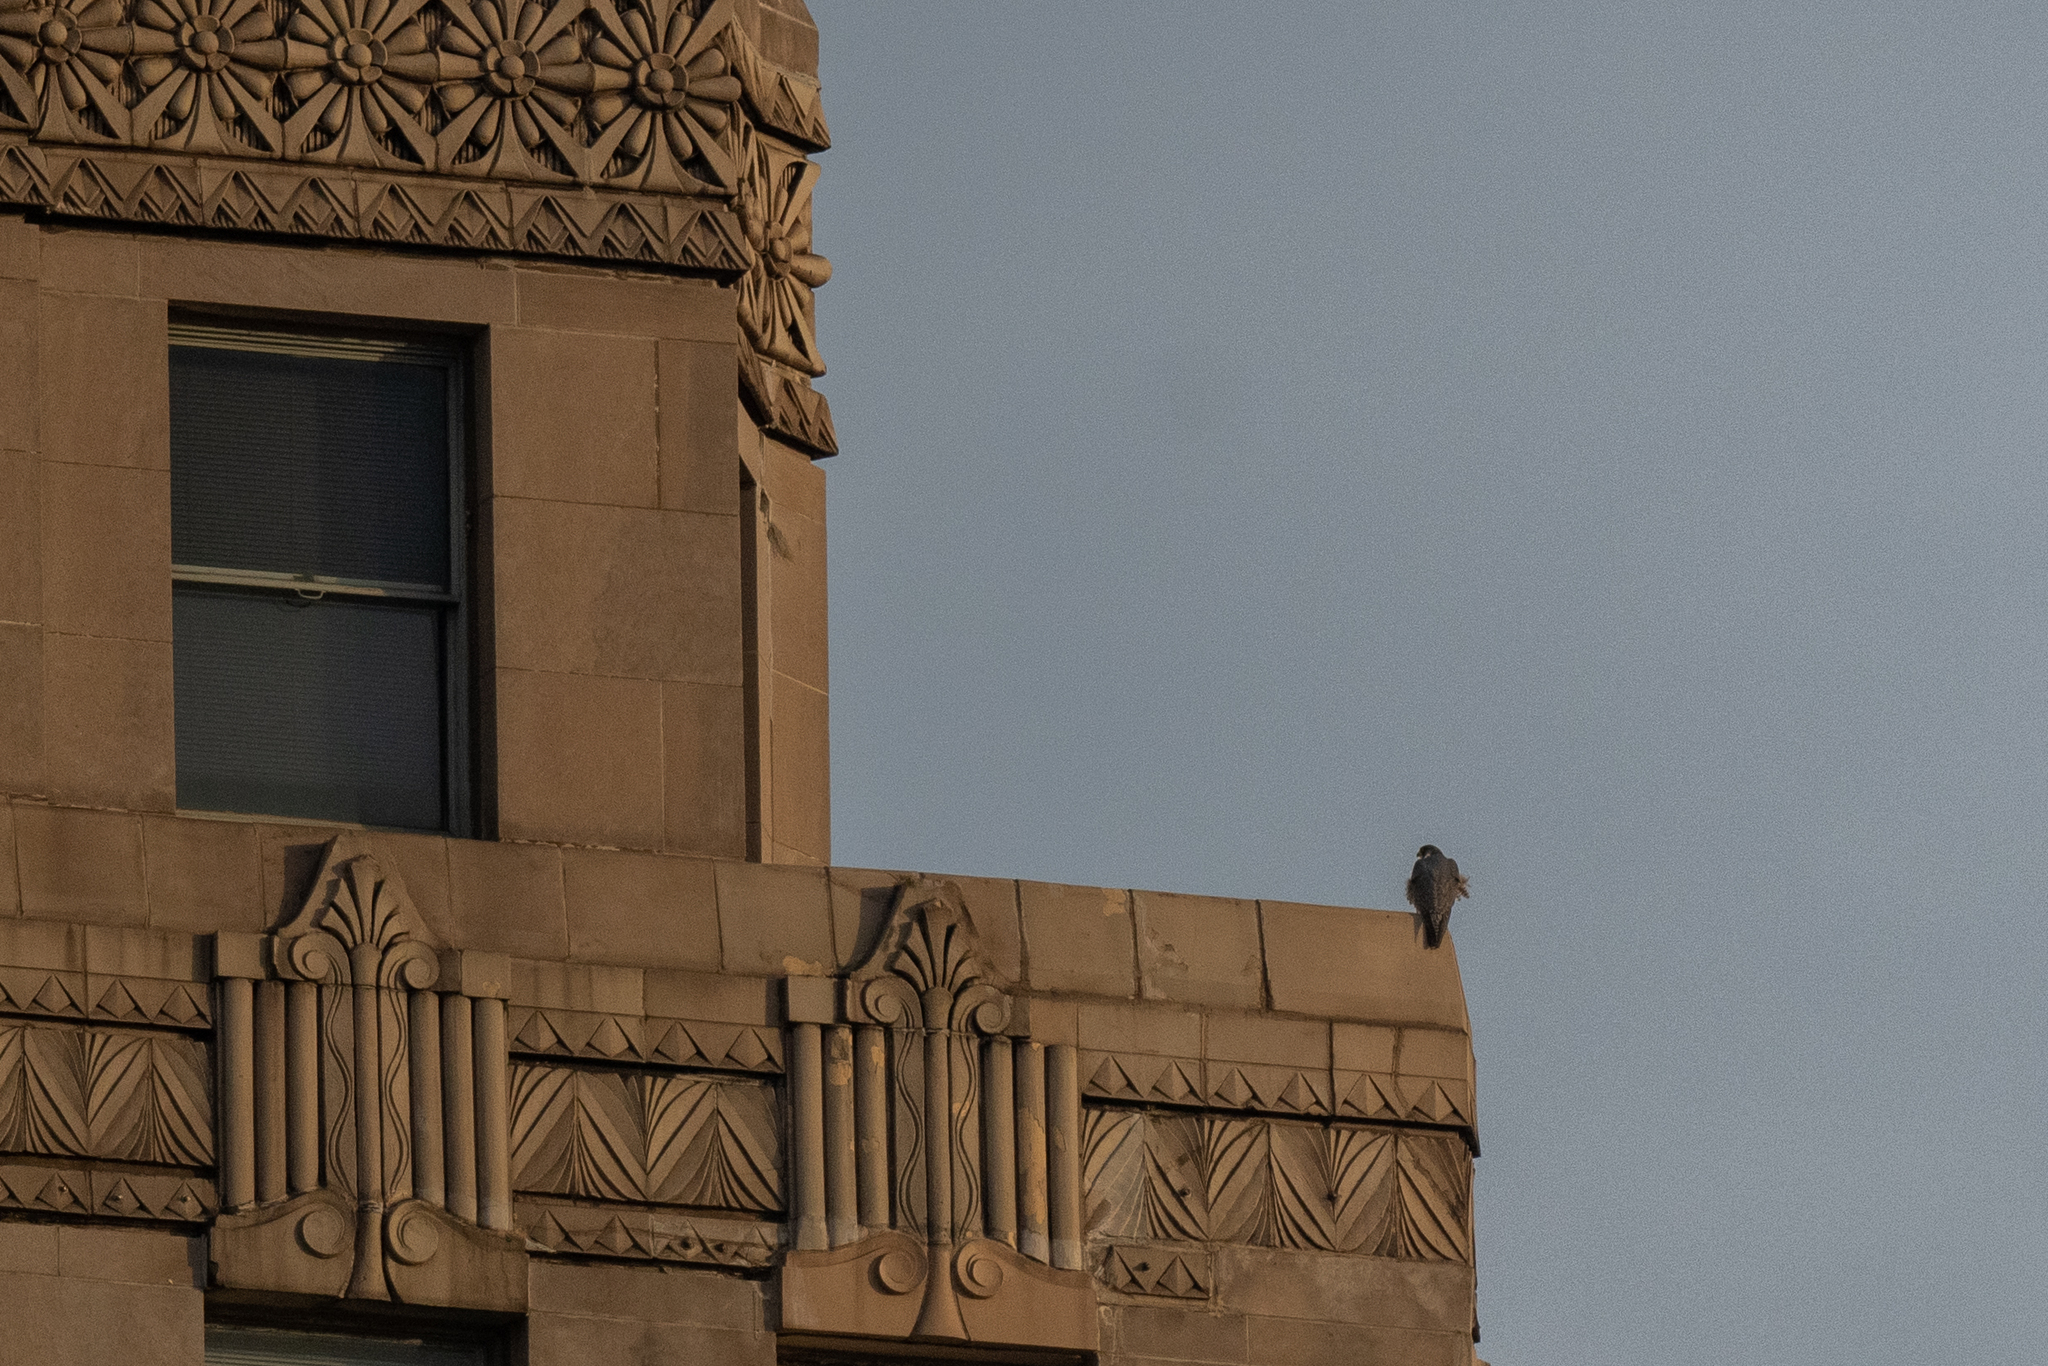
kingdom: Animalia
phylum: Chordata
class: Aves
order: Falconiformes
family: Falconidae
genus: Falco
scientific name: Falco peregrinus
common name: Peregrine falcon
